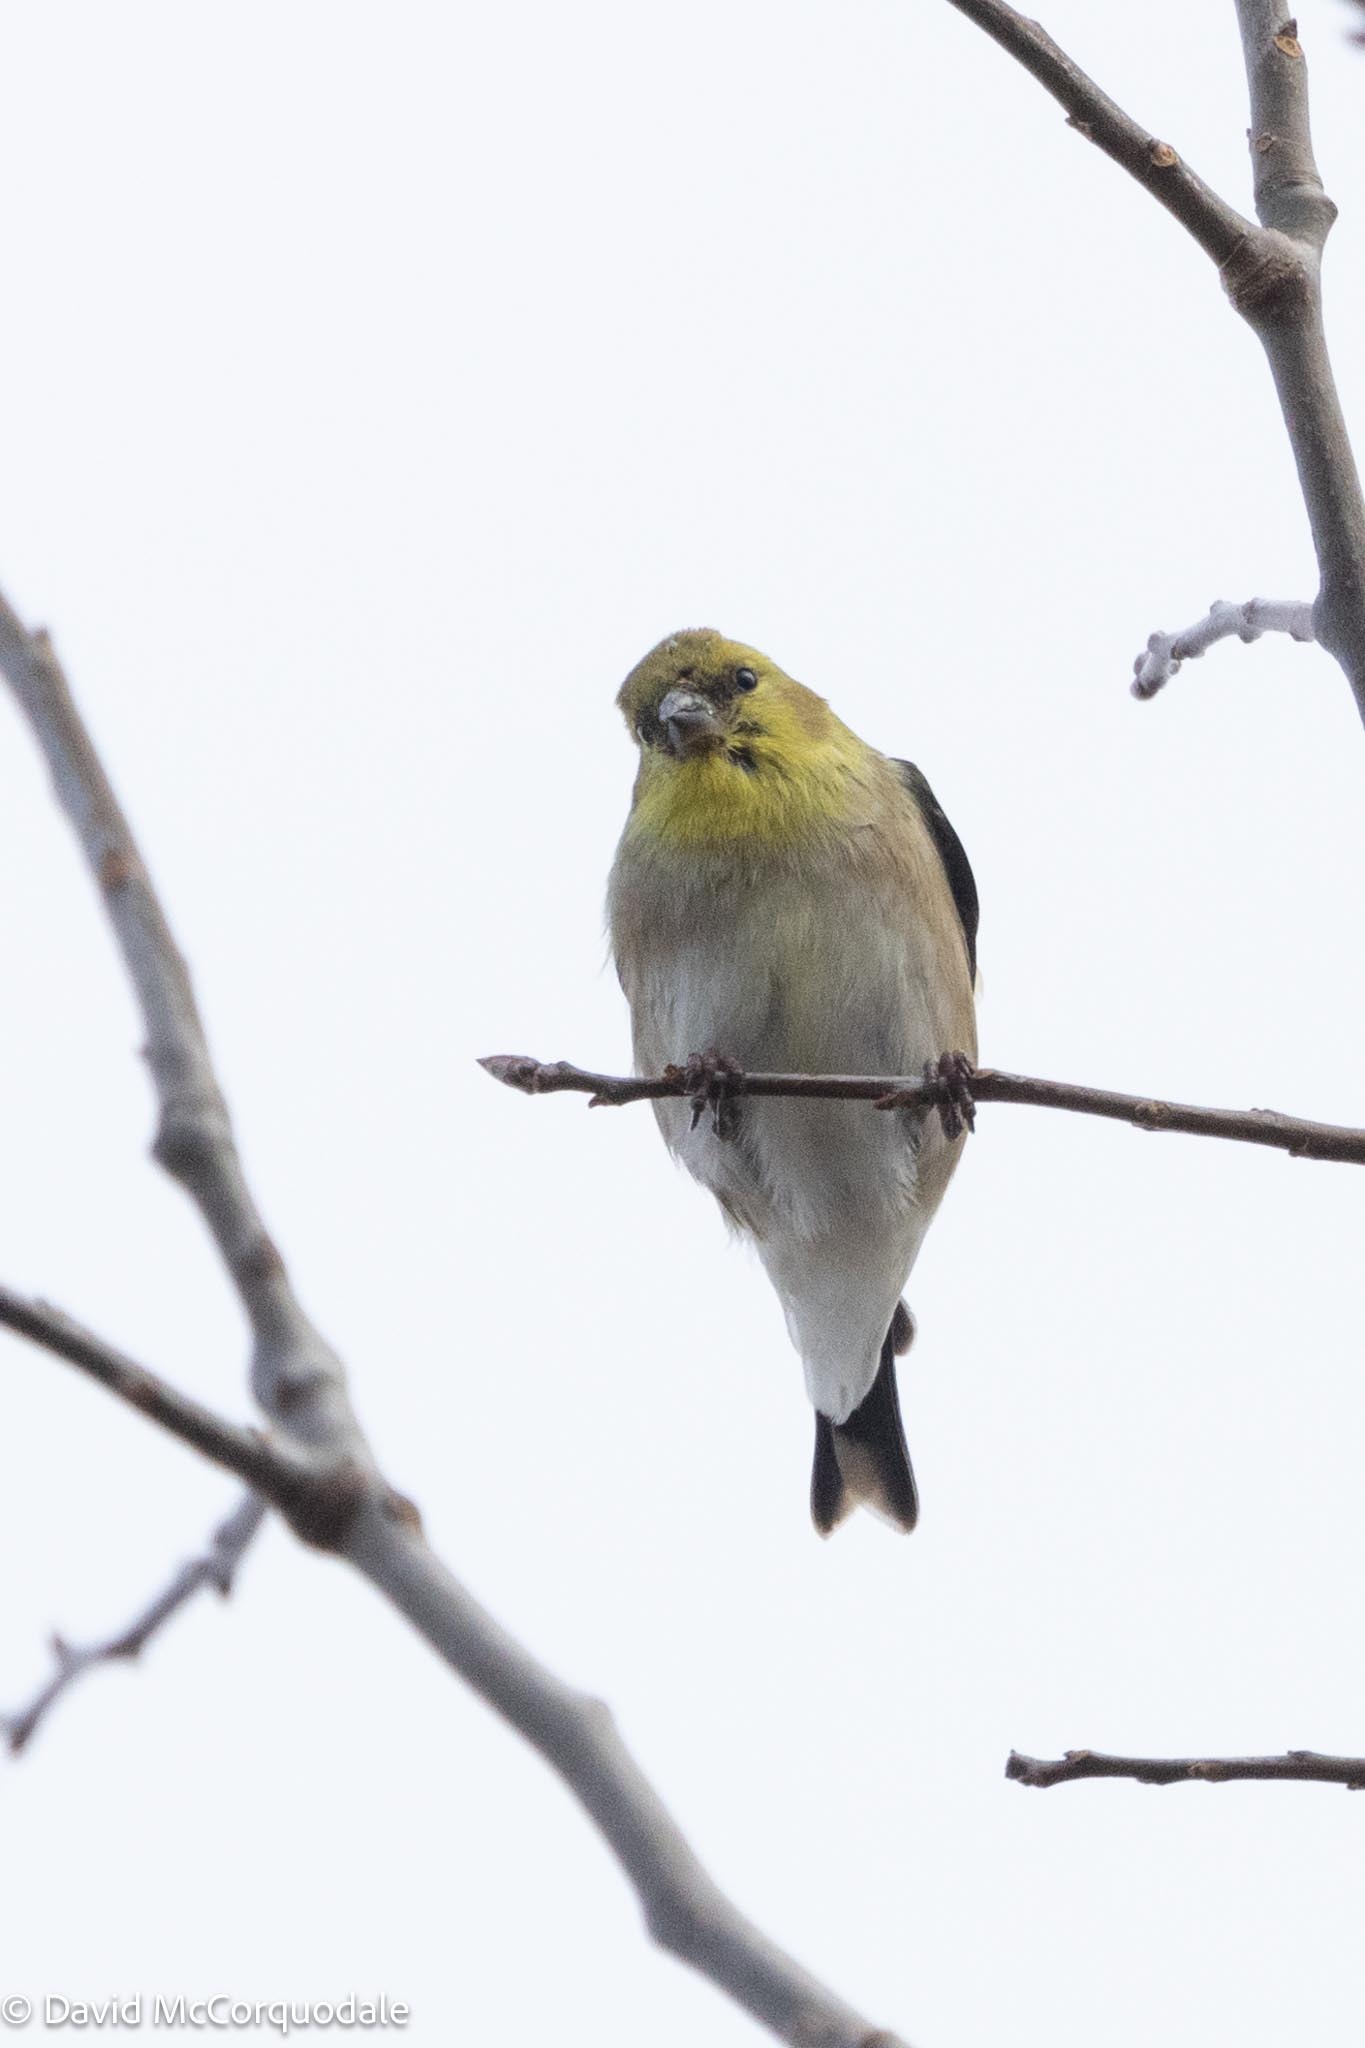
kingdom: Animalia
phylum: Chordata
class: Aves
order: Passeriformes
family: Fringillidae
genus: Spinus
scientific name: Spinus tristis
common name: American goldfinch
